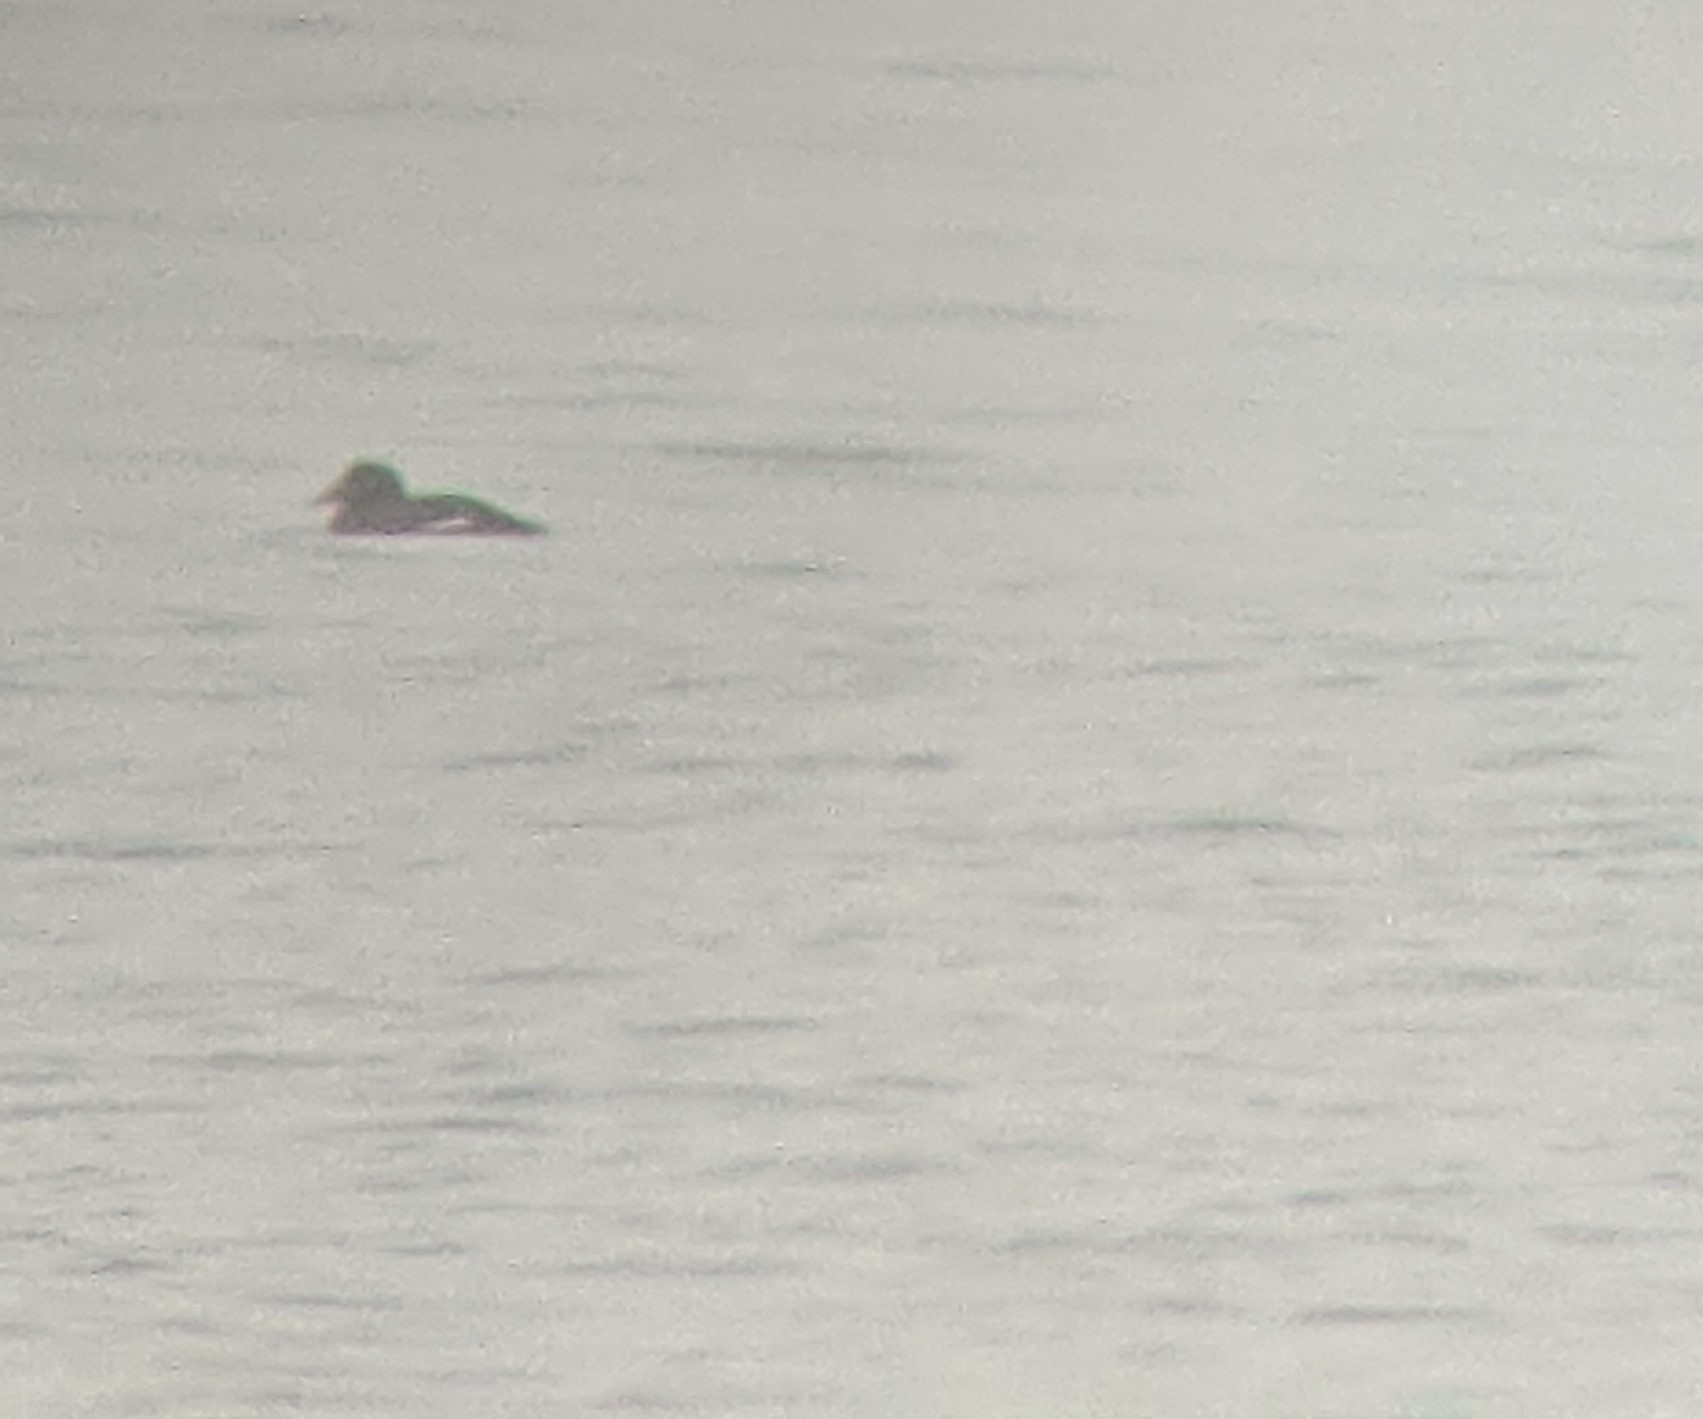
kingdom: Animalia
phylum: Chordata
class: Aves
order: Anseriformes
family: Anatidae
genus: Melanitta
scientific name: Melanitta deglandi
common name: White-winged scoter
